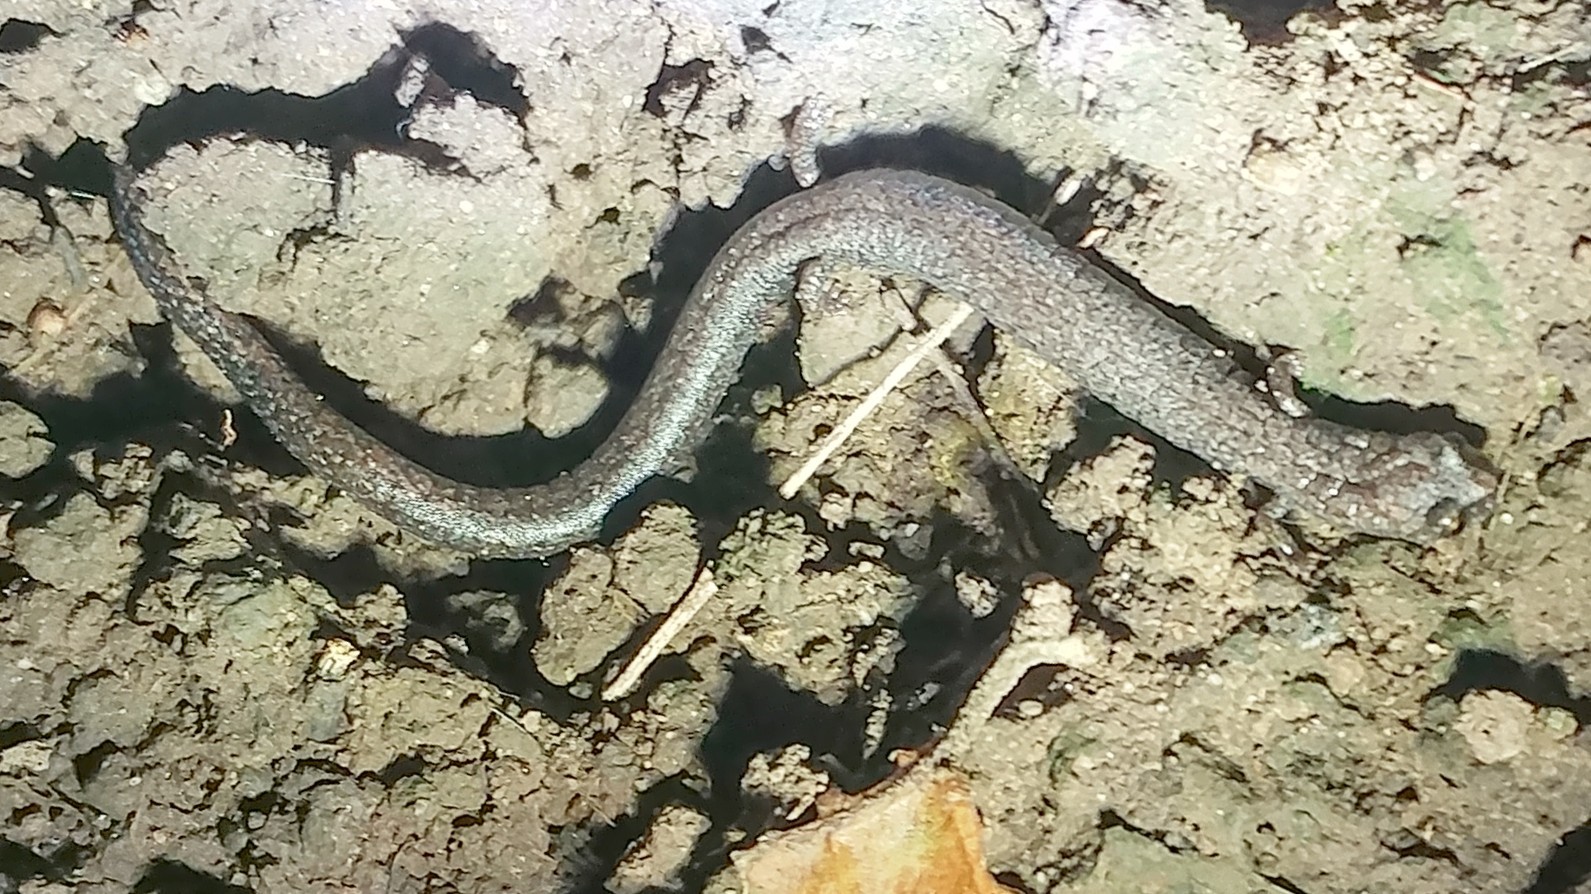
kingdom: Animalia
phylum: Chordata
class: Amphibia
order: Caudata
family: Plethodontidae
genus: Batrachoseps
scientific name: Batrachoseps nigriventris
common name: Black-bellied slender salamander
